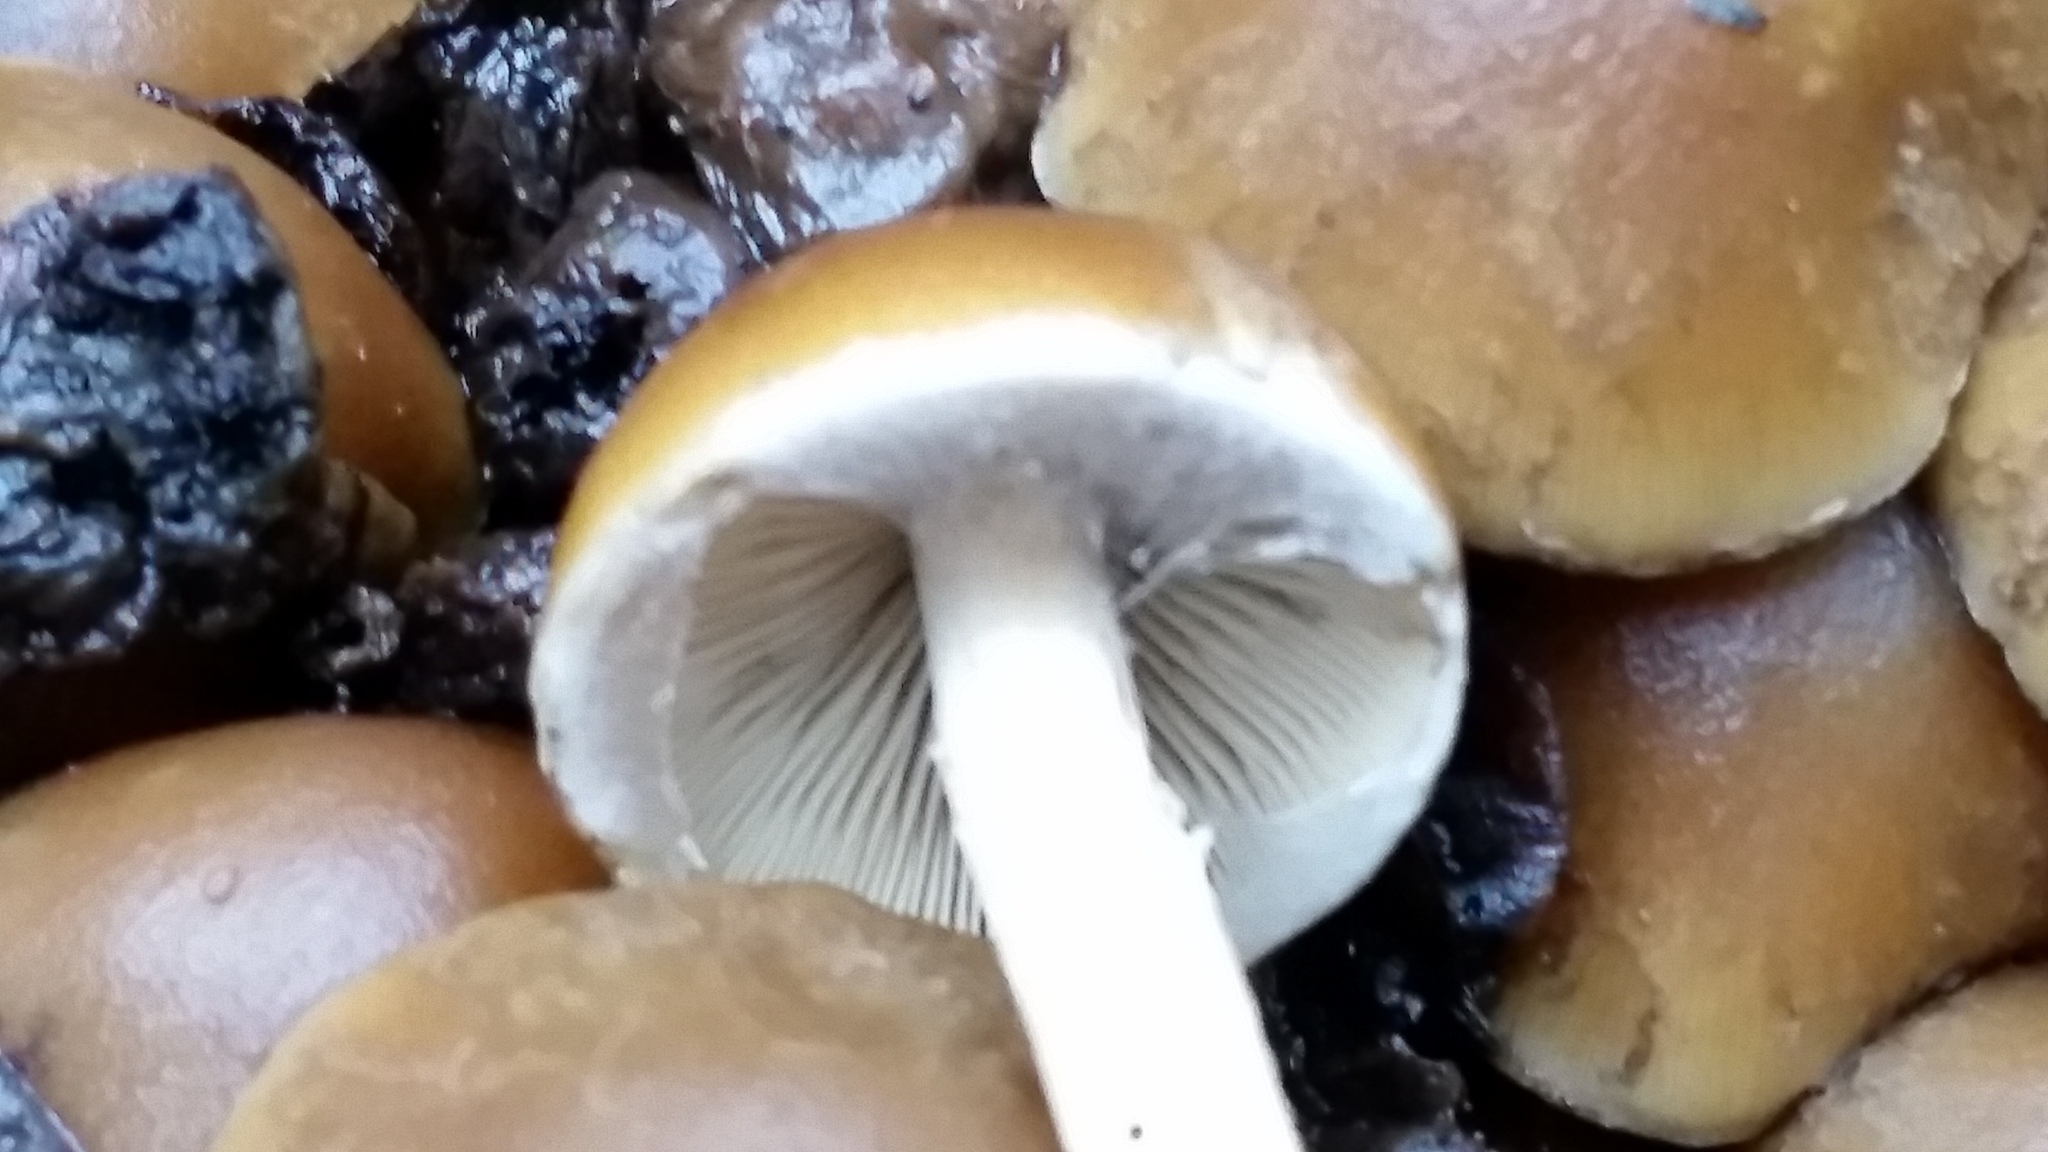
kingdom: Fungi
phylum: Basidiomycota
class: Agaricomycetes
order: Agaricales
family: Psathyrellaceae
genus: Psathyrella
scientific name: Psathyrella piluliformis
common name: Common stump brittlestem
